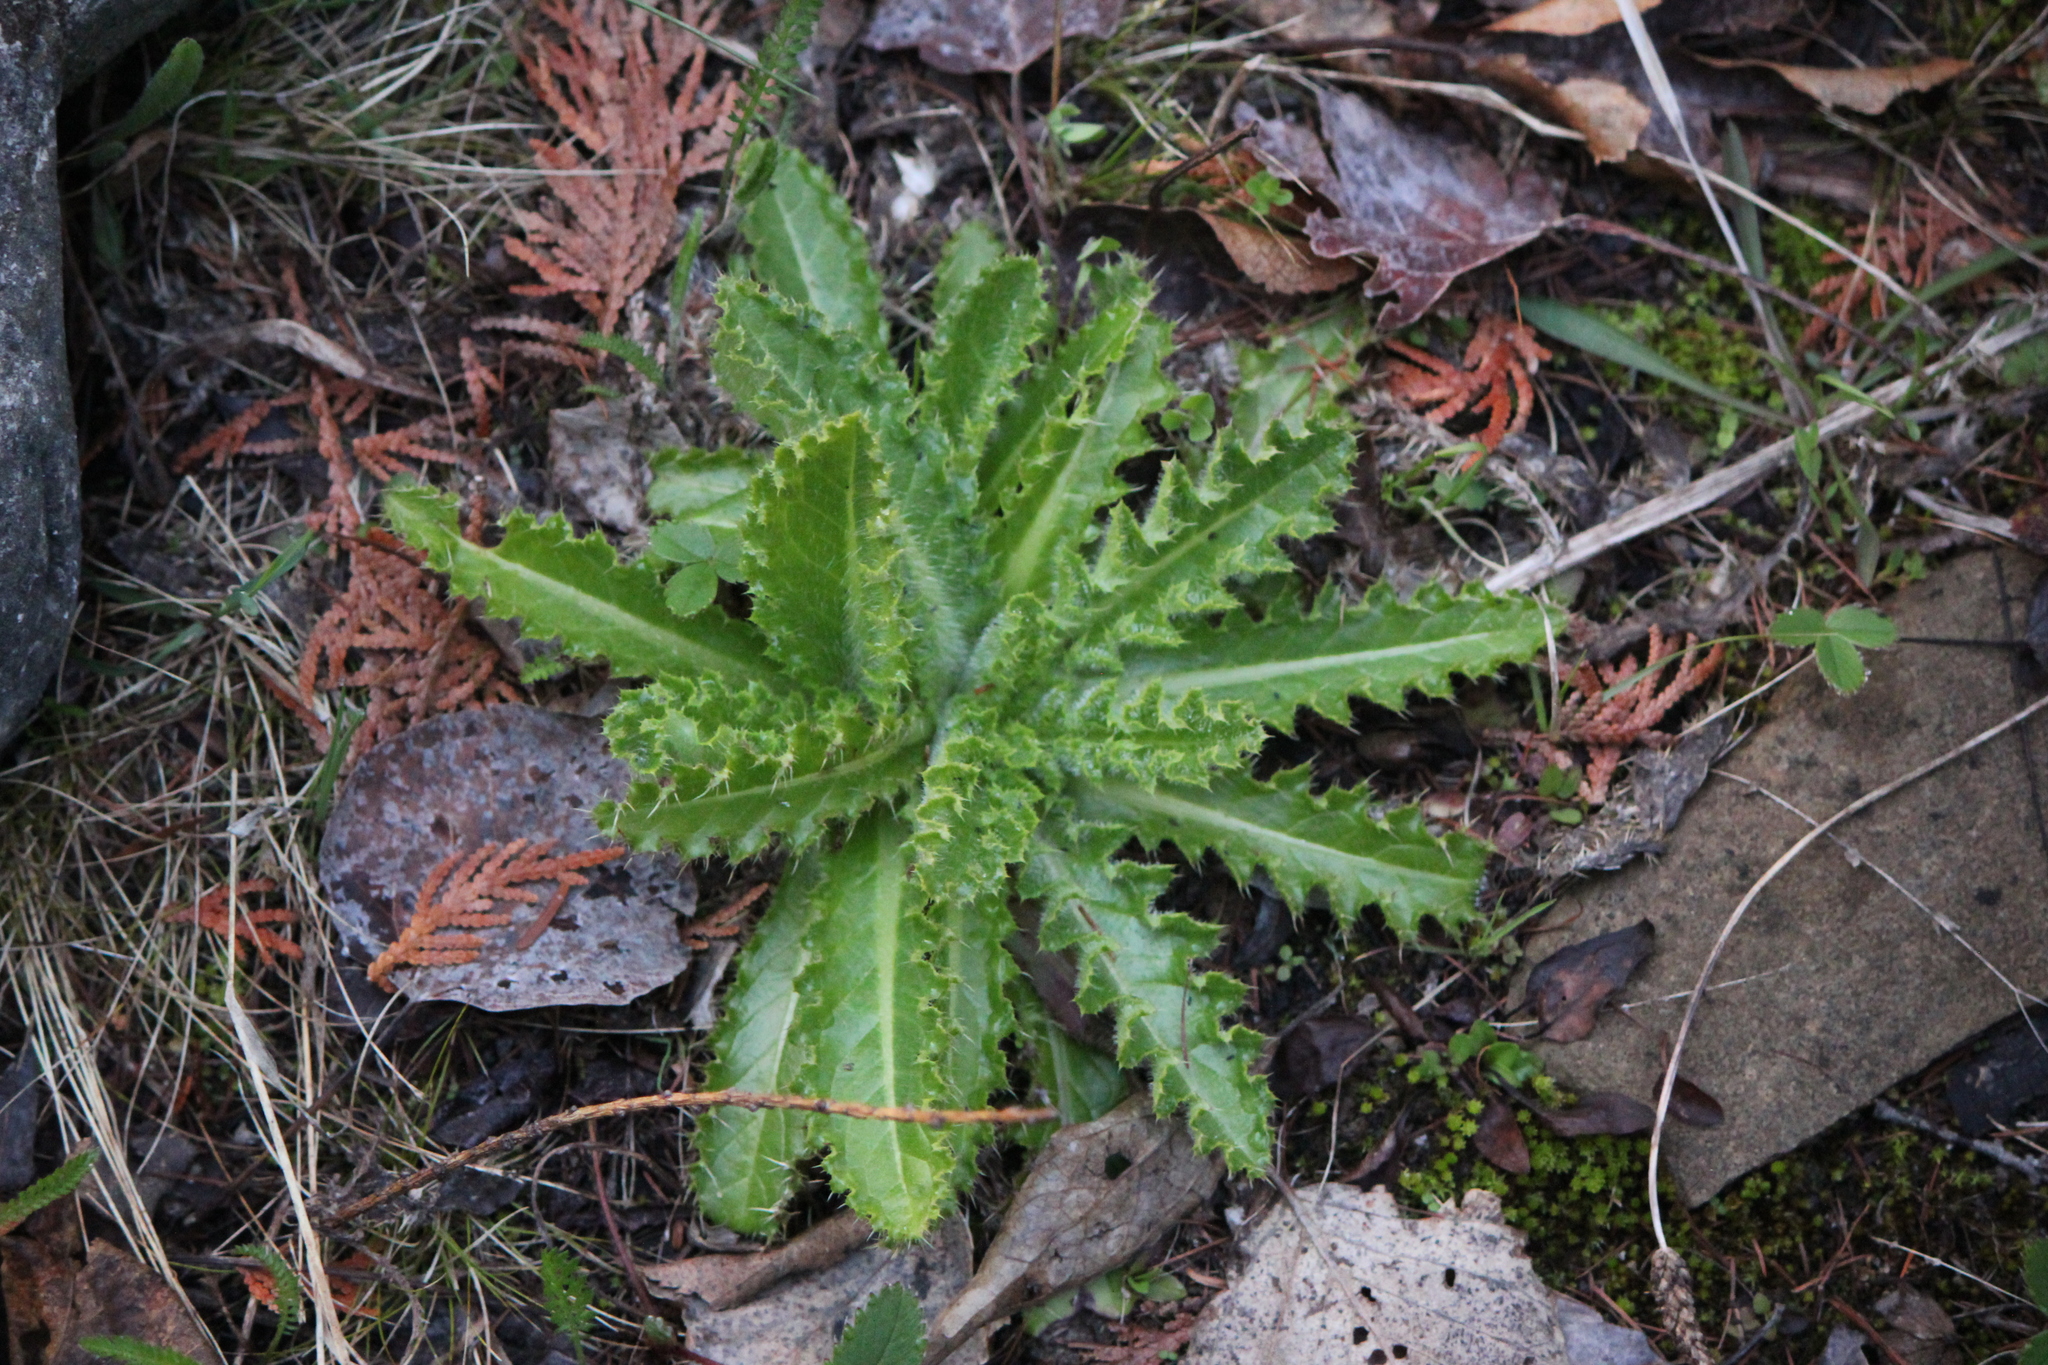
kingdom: Plantae
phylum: Tracheophyta
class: Magnoliopsida
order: Asterales
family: Asteraceae
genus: Cirsium
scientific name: Cirsium pumilum
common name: Pasture thistle
